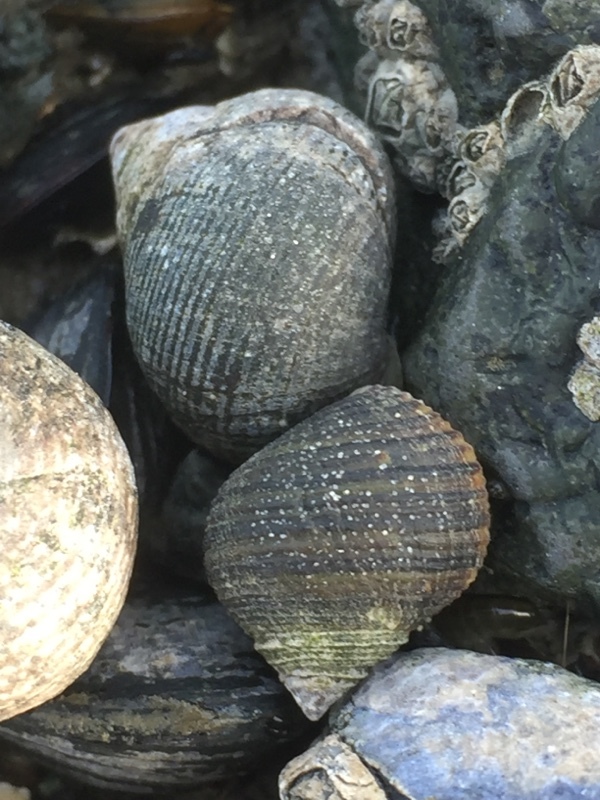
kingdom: Animalia
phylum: Mollusca
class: Gastropoda
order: Littorinimorpha
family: Littorinidae
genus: Littorina
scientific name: Littorina littorea
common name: Common periwinkle
